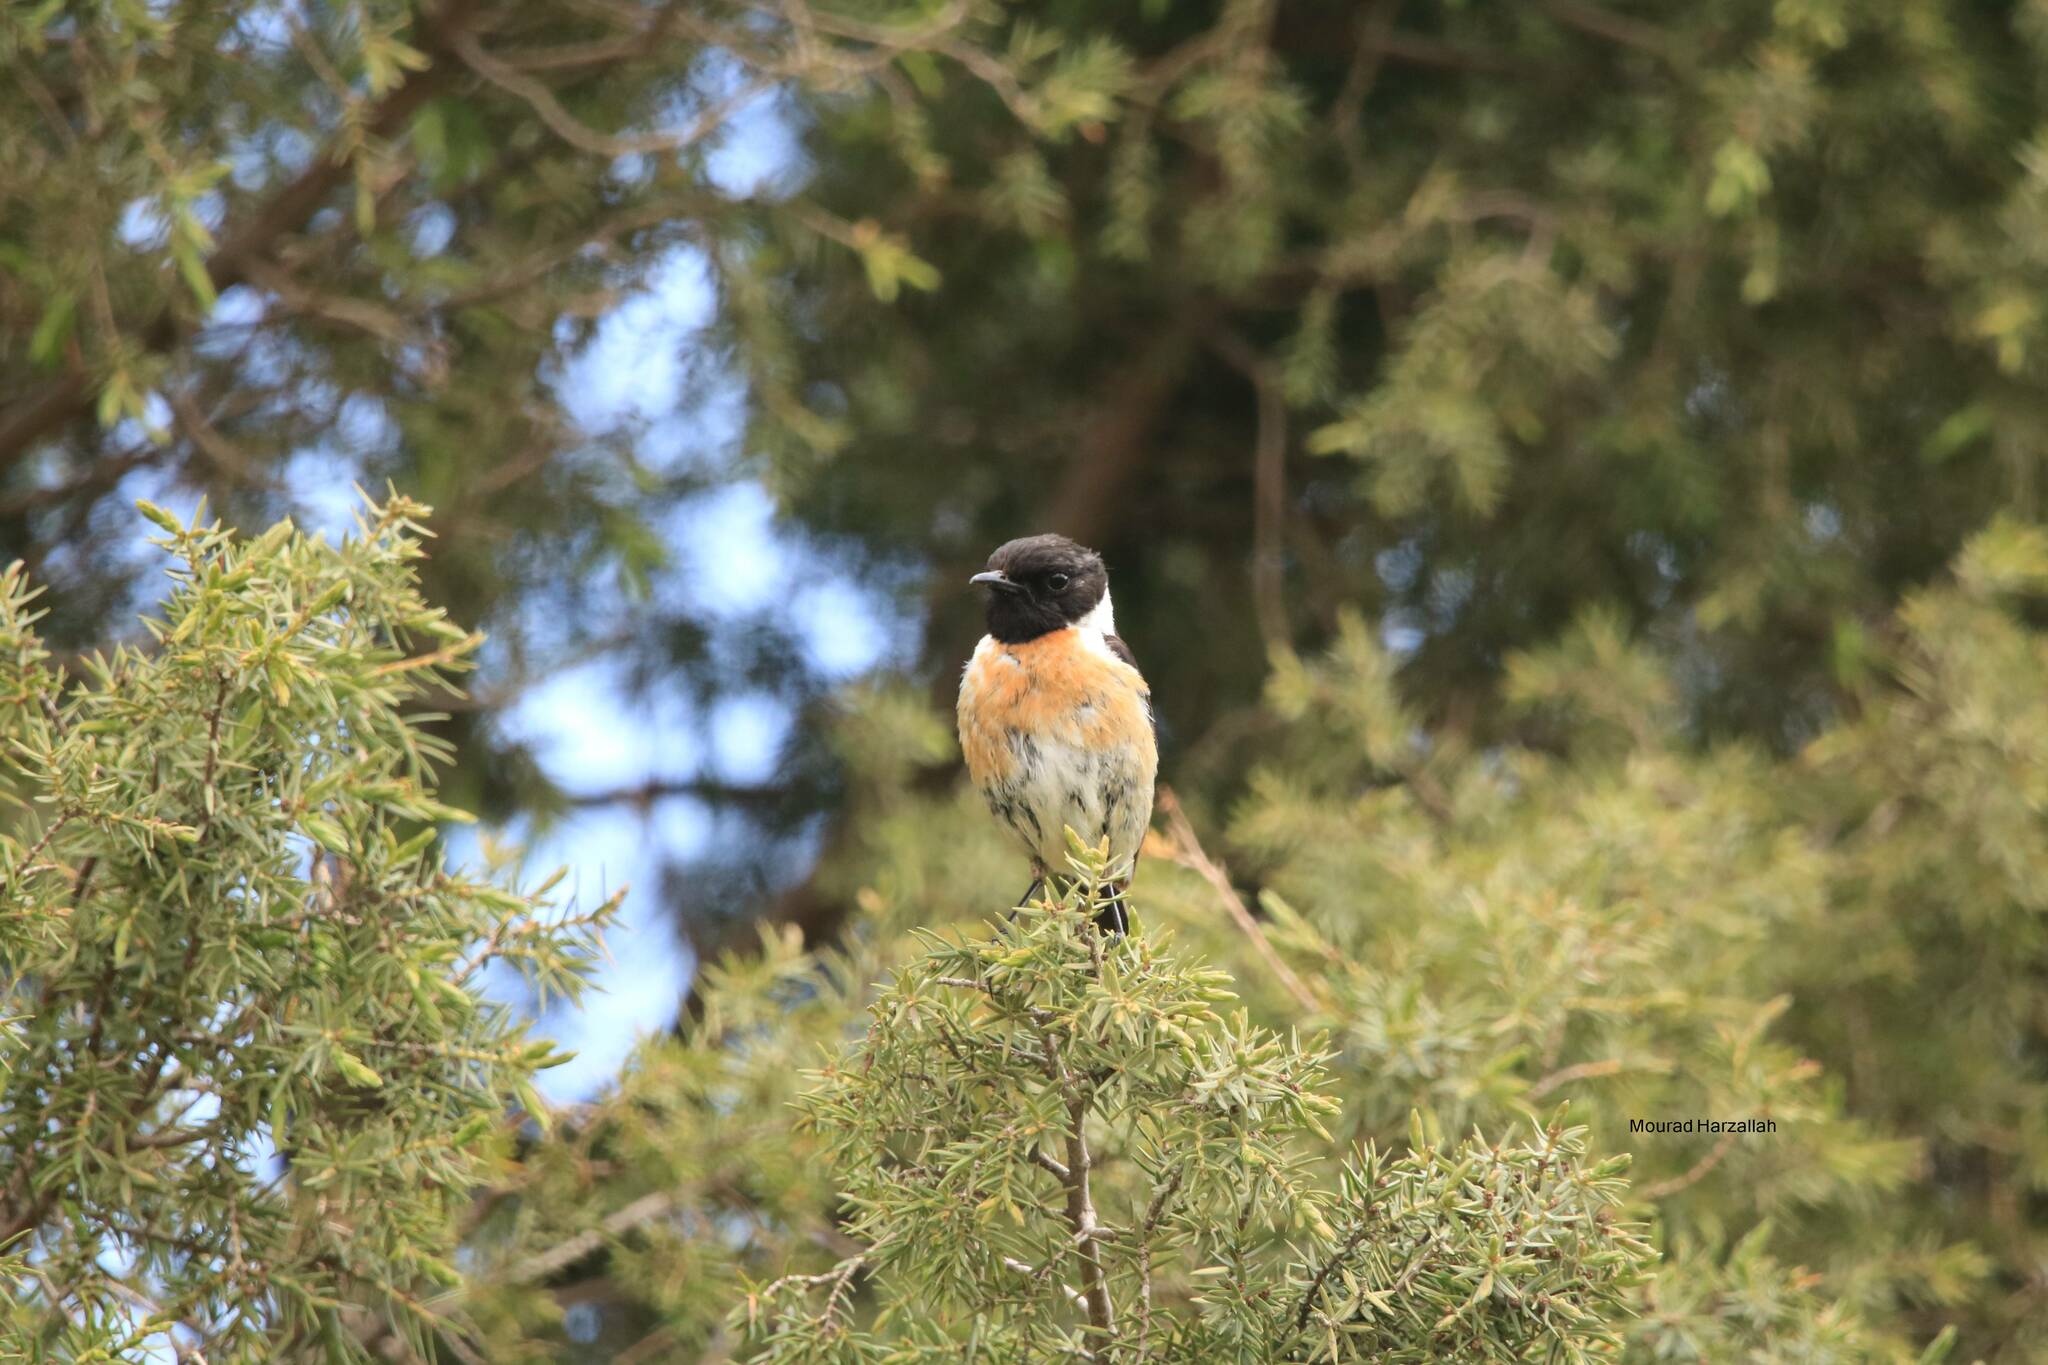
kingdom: Animalia
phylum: Chordata
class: Aves
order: Passeriformes
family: Muscicapidae
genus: Saxicola
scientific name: Saxicola rubicola
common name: European stonechat
